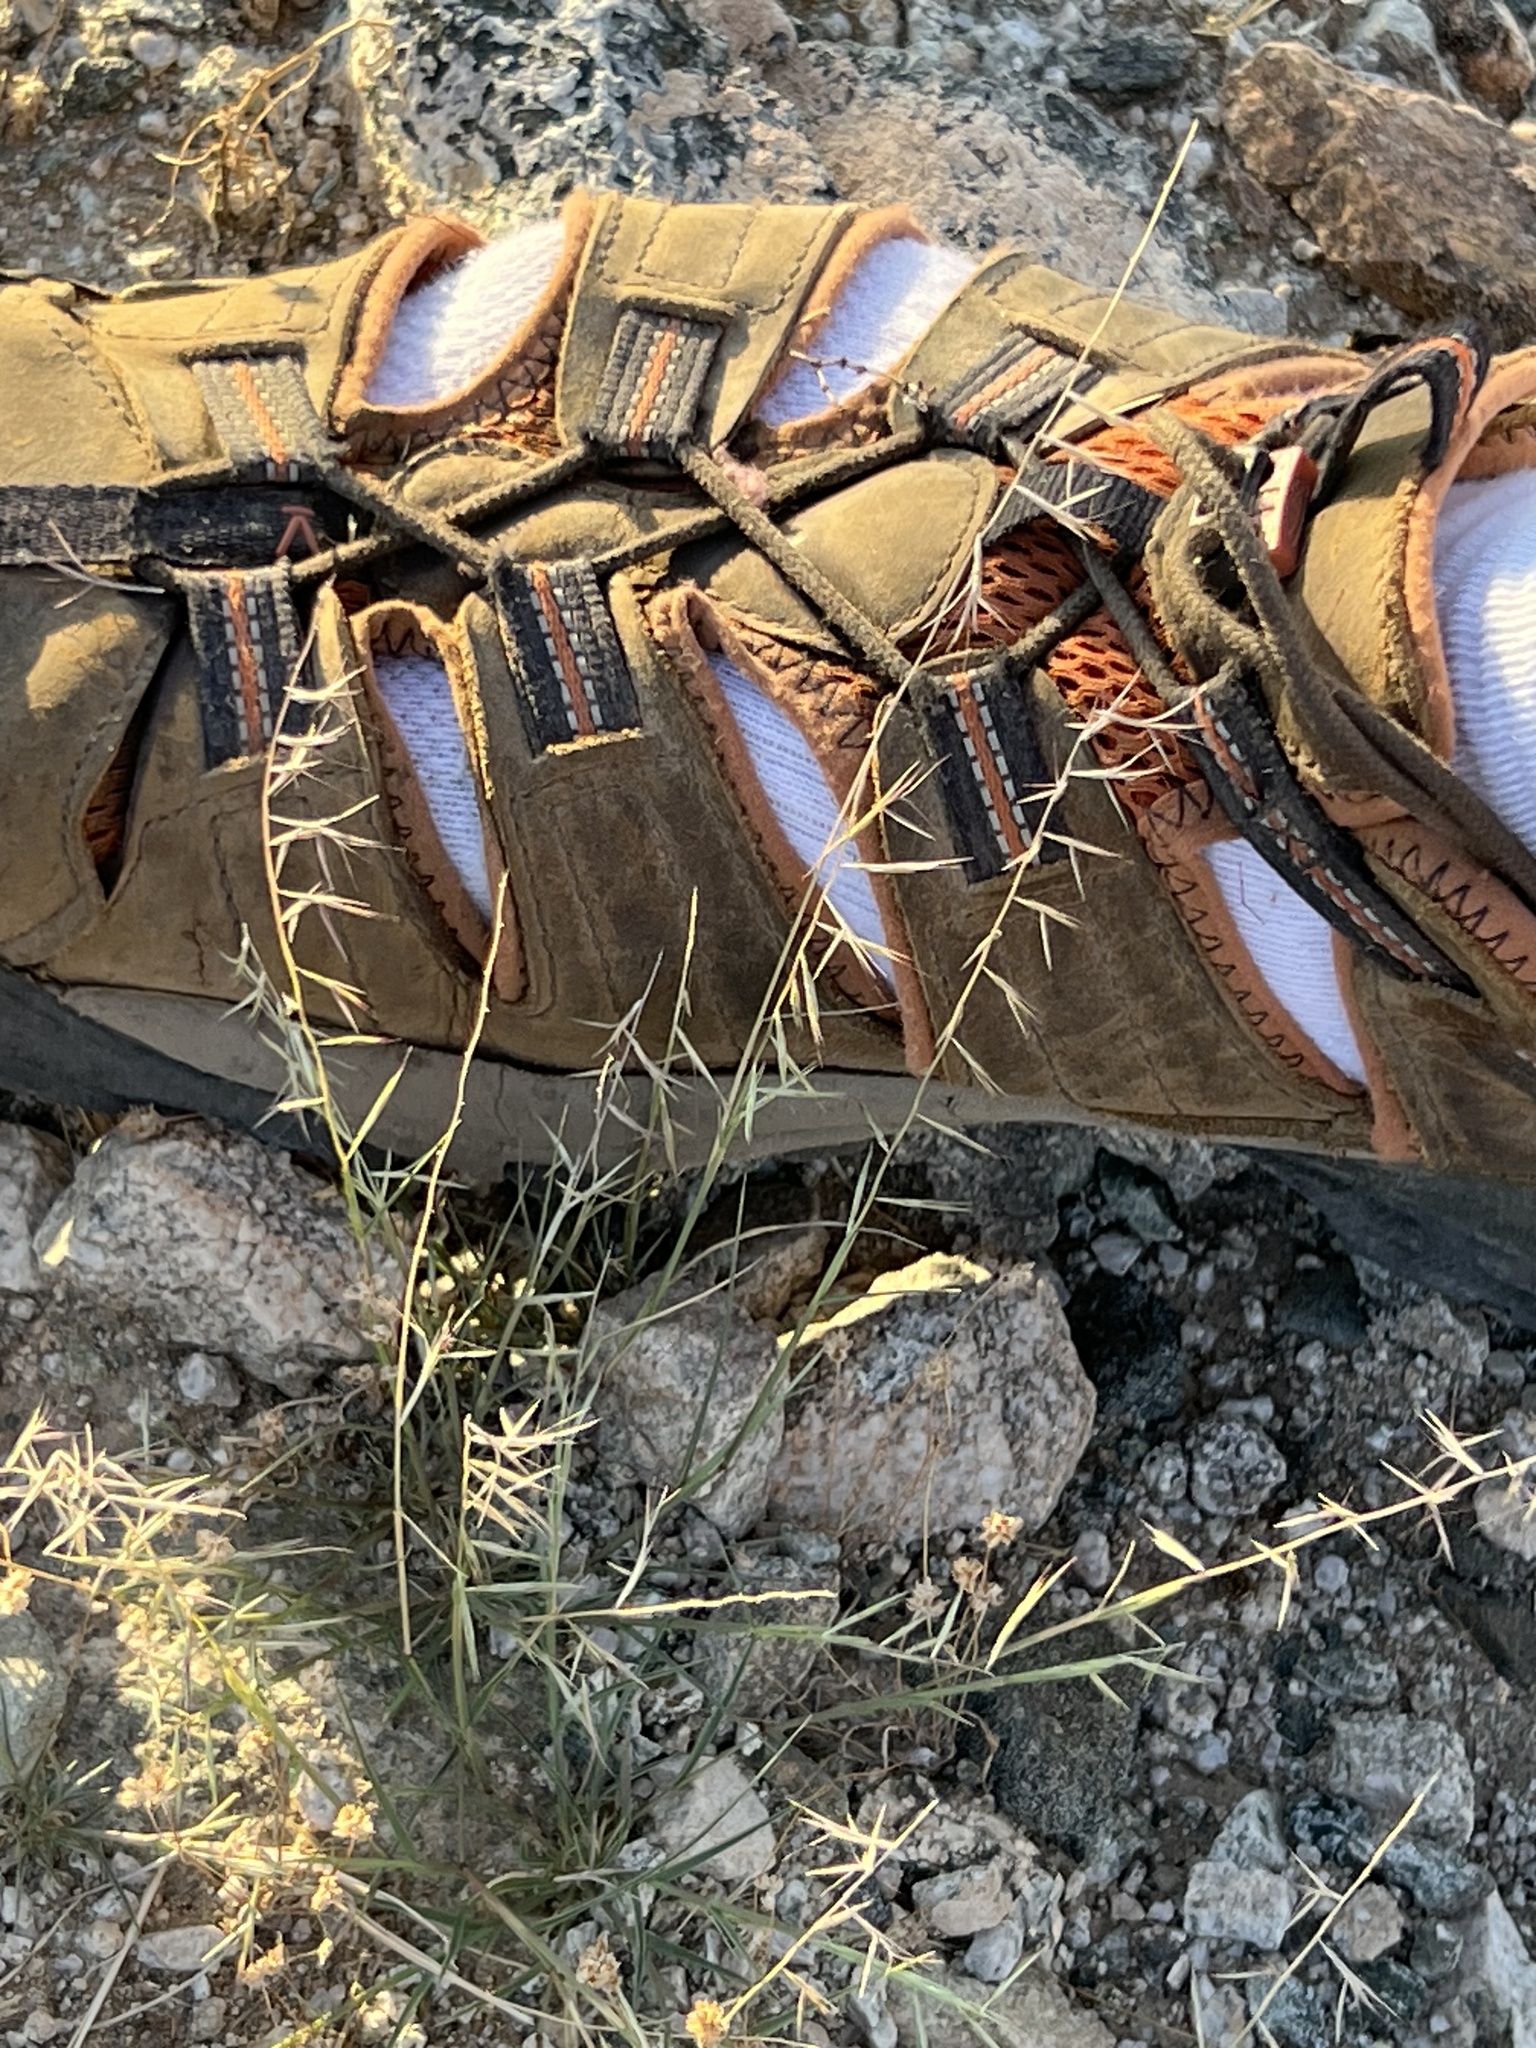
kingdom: Plantae
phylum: Tracheophyta
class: Liliopsida
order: Poales
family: Poaceae
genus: Bouteloua
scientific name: Bouteloua aristidoides
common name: Needle grama
